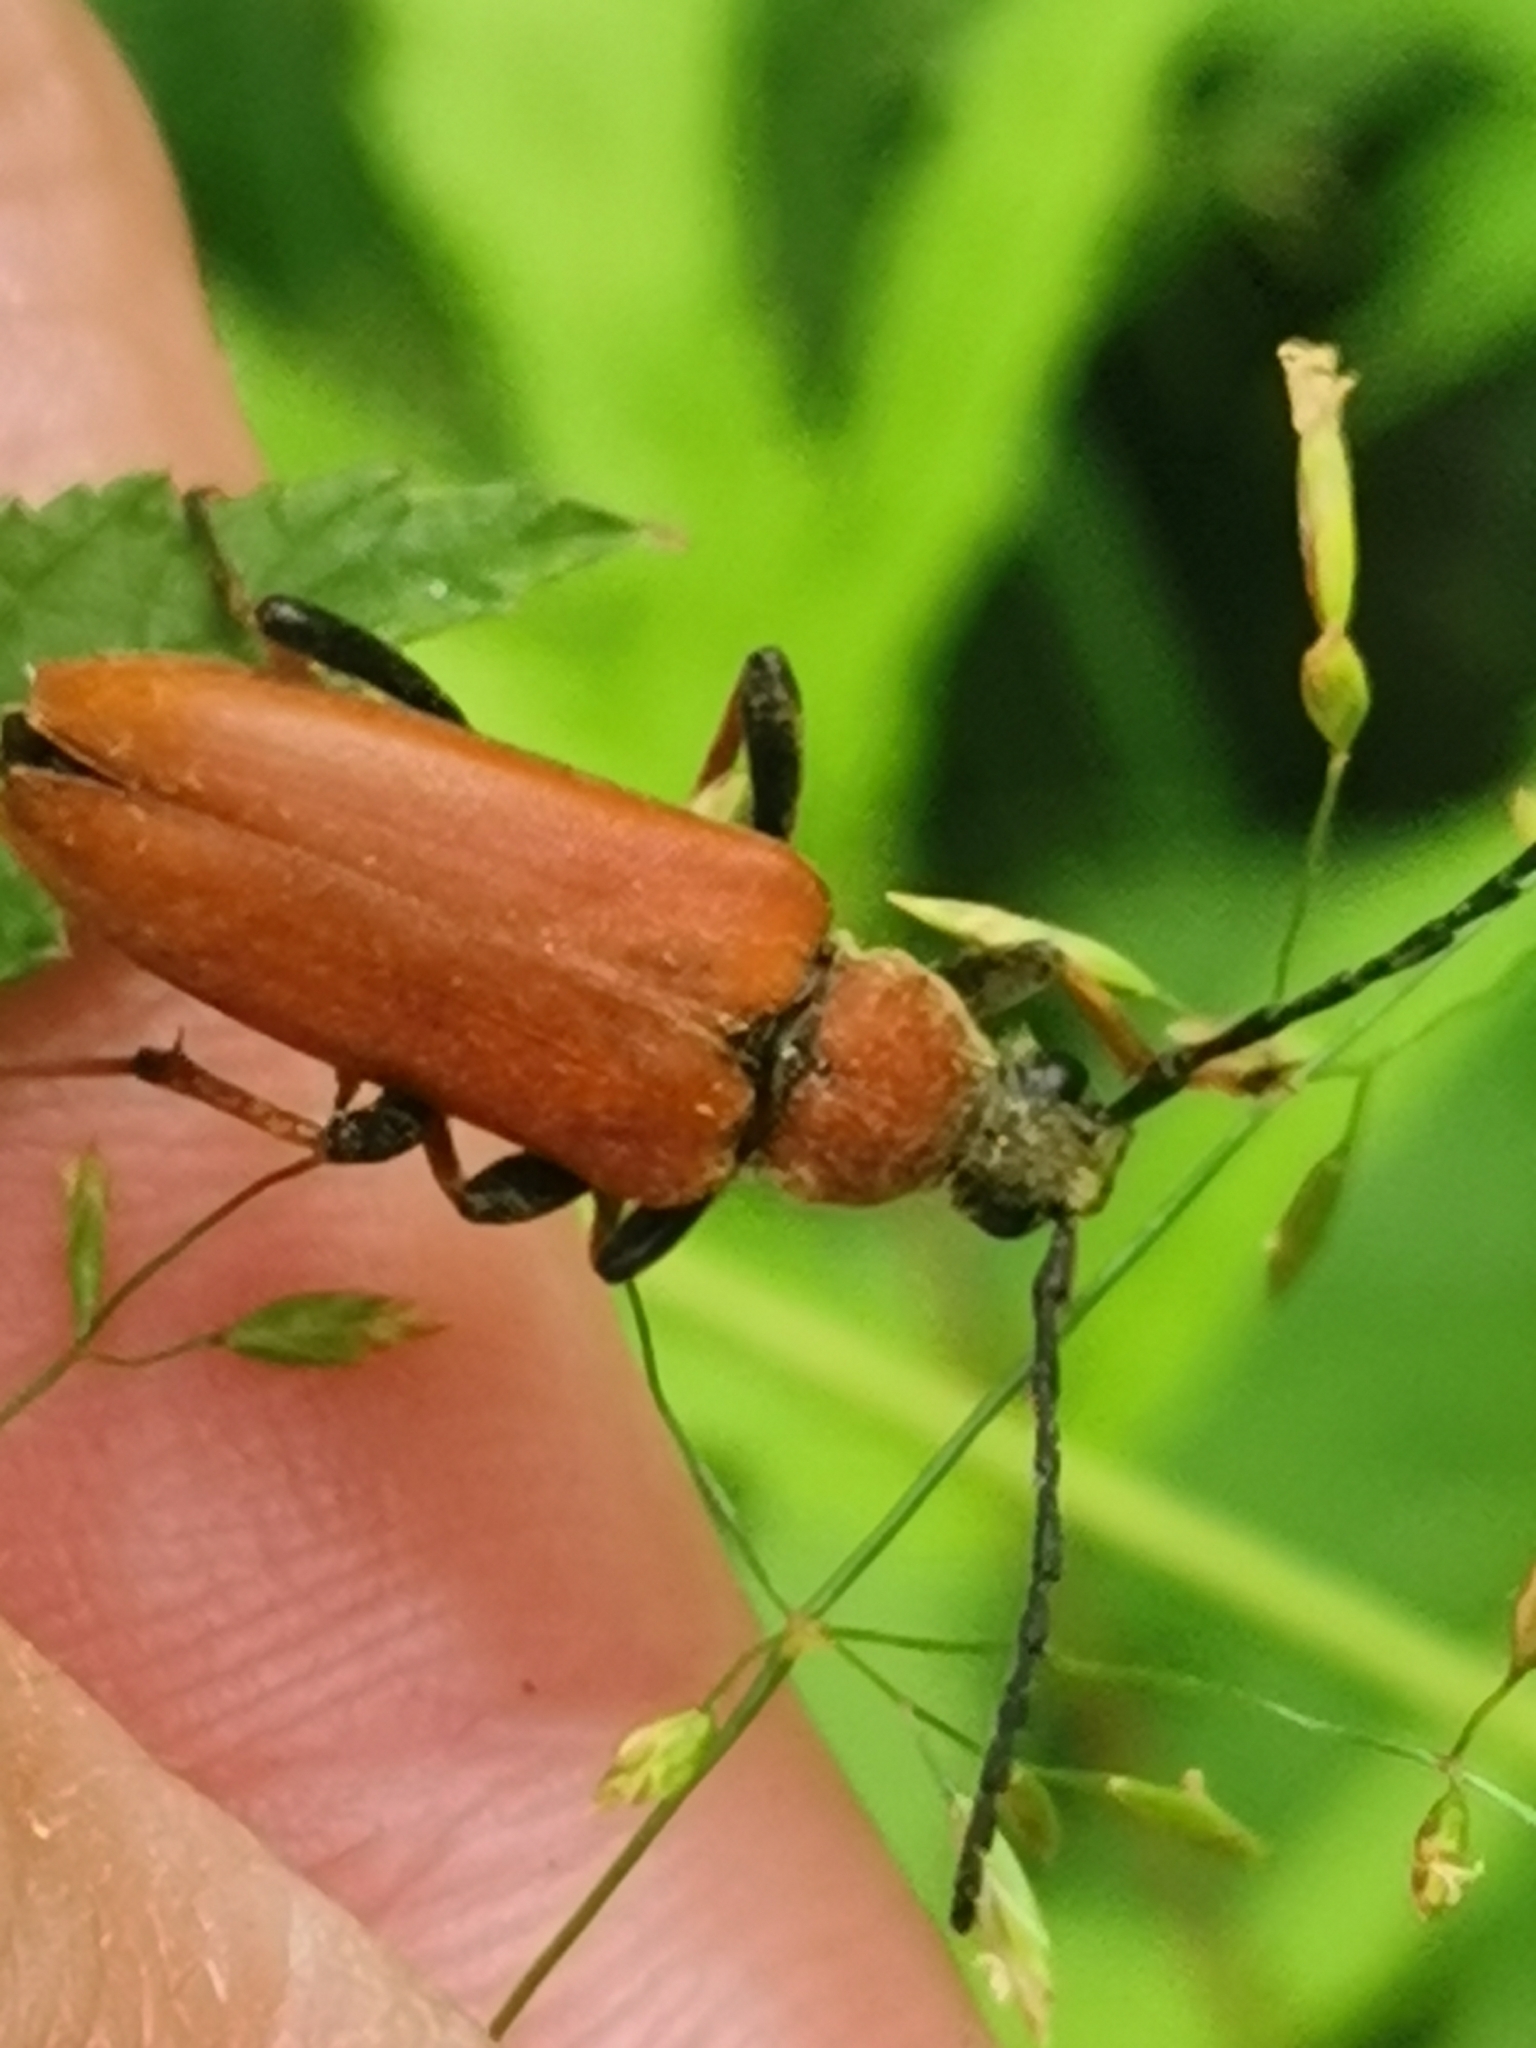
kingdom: Animalia
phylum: Arthropoda
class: Insecta
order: Coleoptera
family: Cerambycidae
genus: Stictoleptura
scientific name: Stictoleptura rubra
